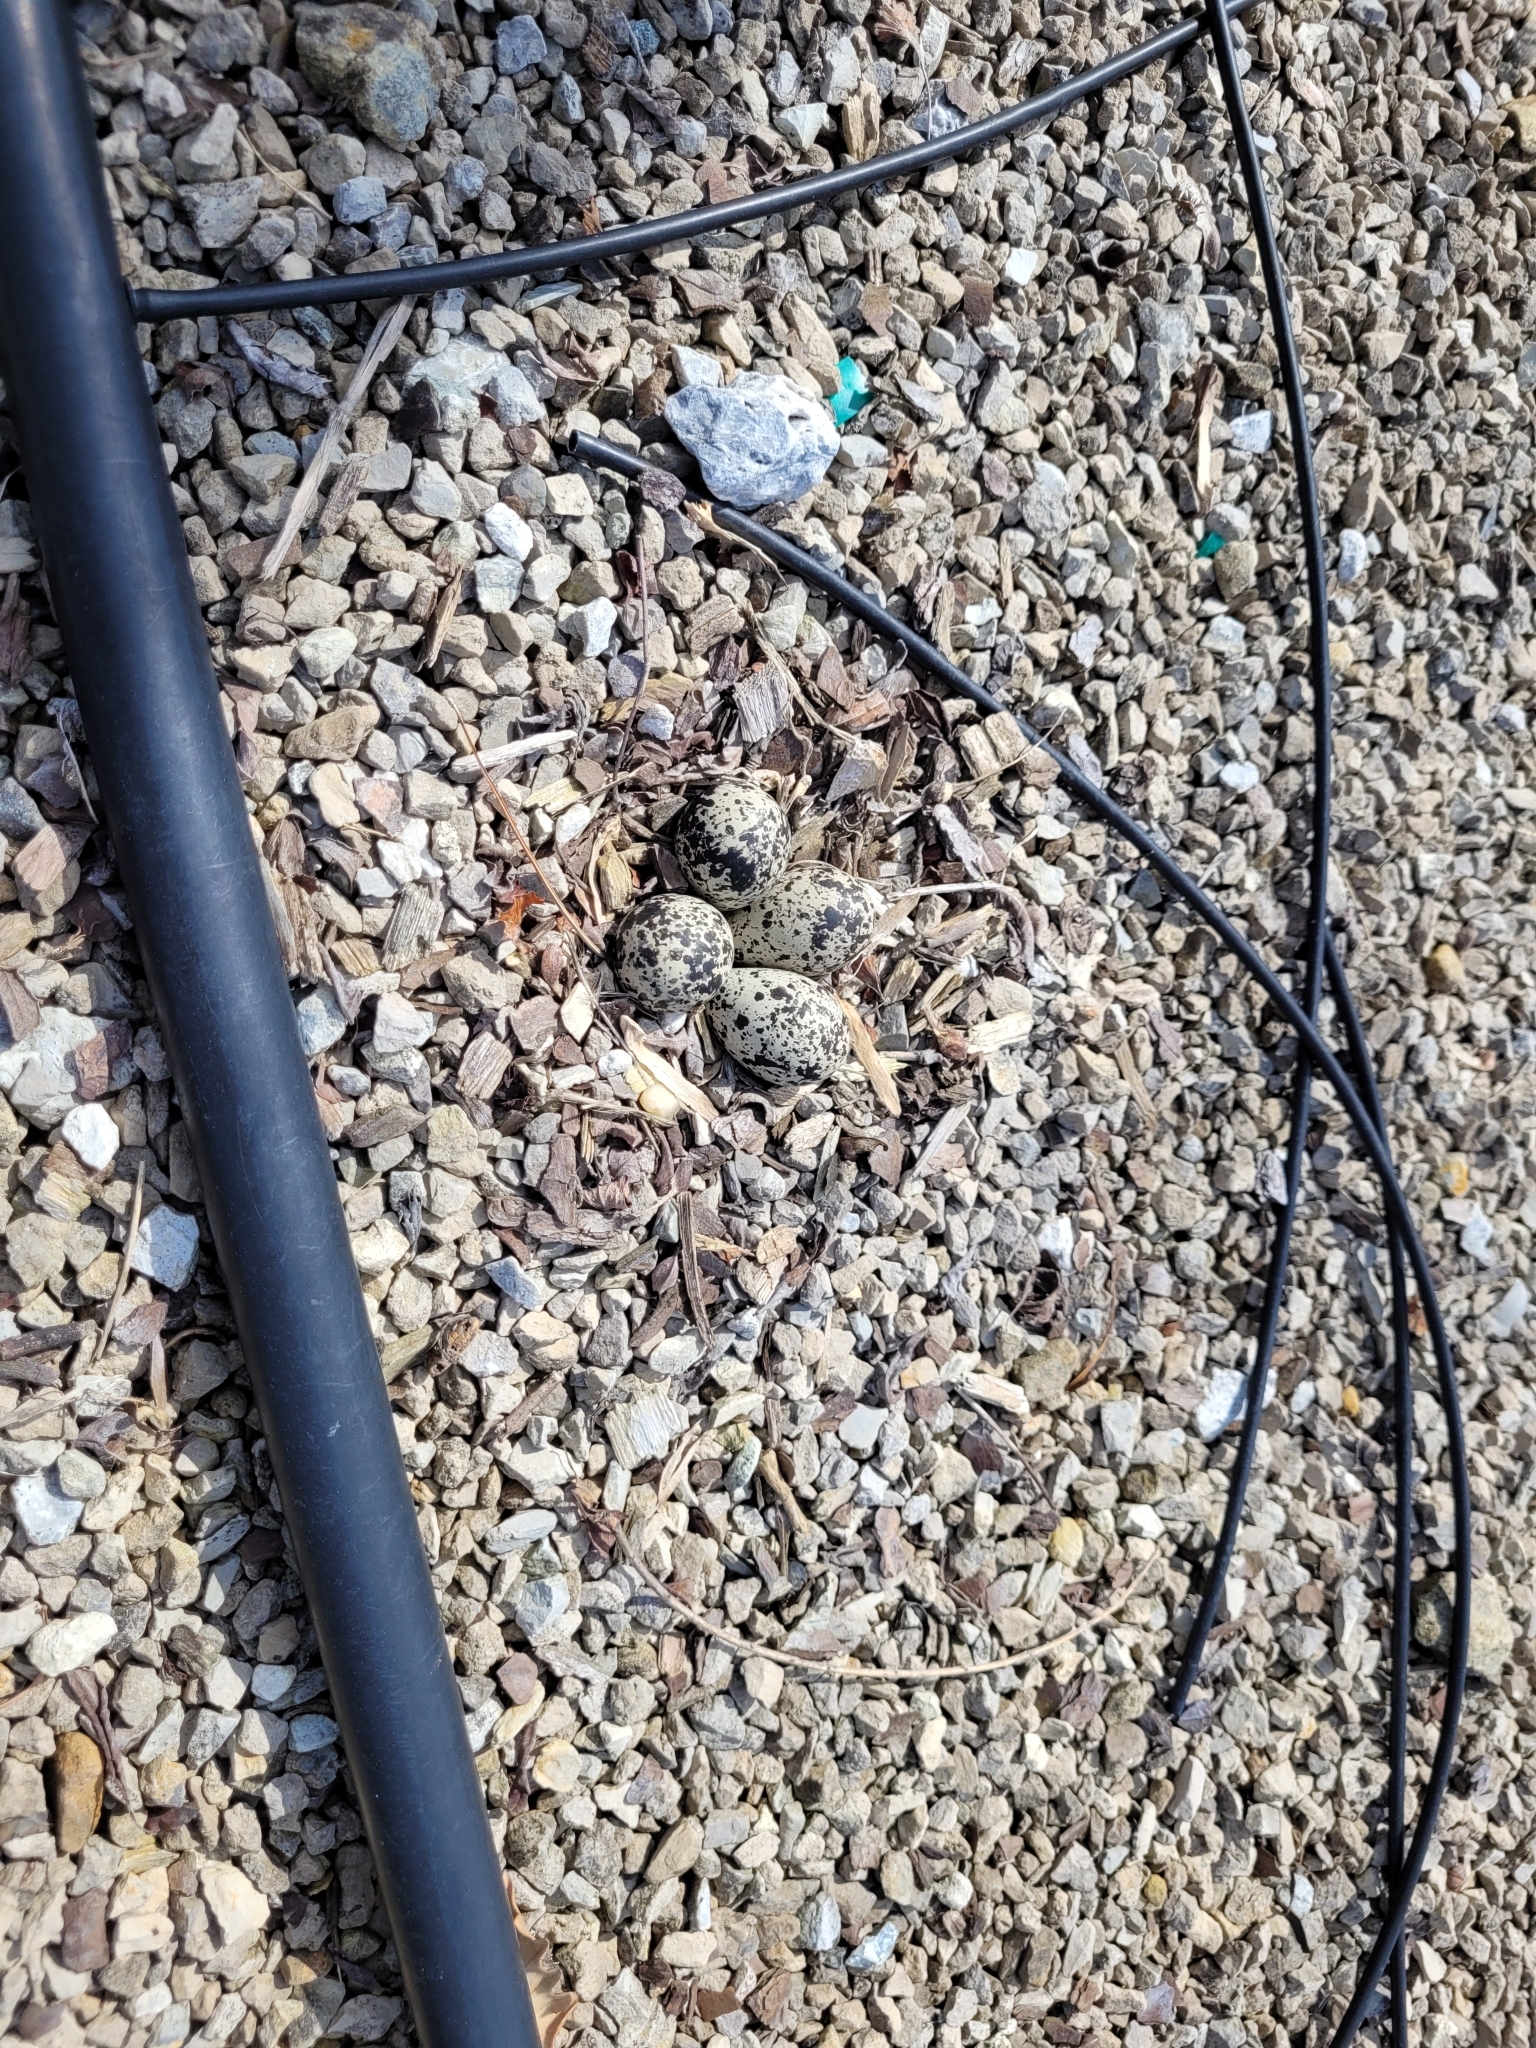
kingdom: Animalia
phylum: Chordata
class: Aves
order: Charadriiformes
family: Charadriidae
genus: Charadrius
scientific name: Charadrius vociferus
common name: Killdeer
